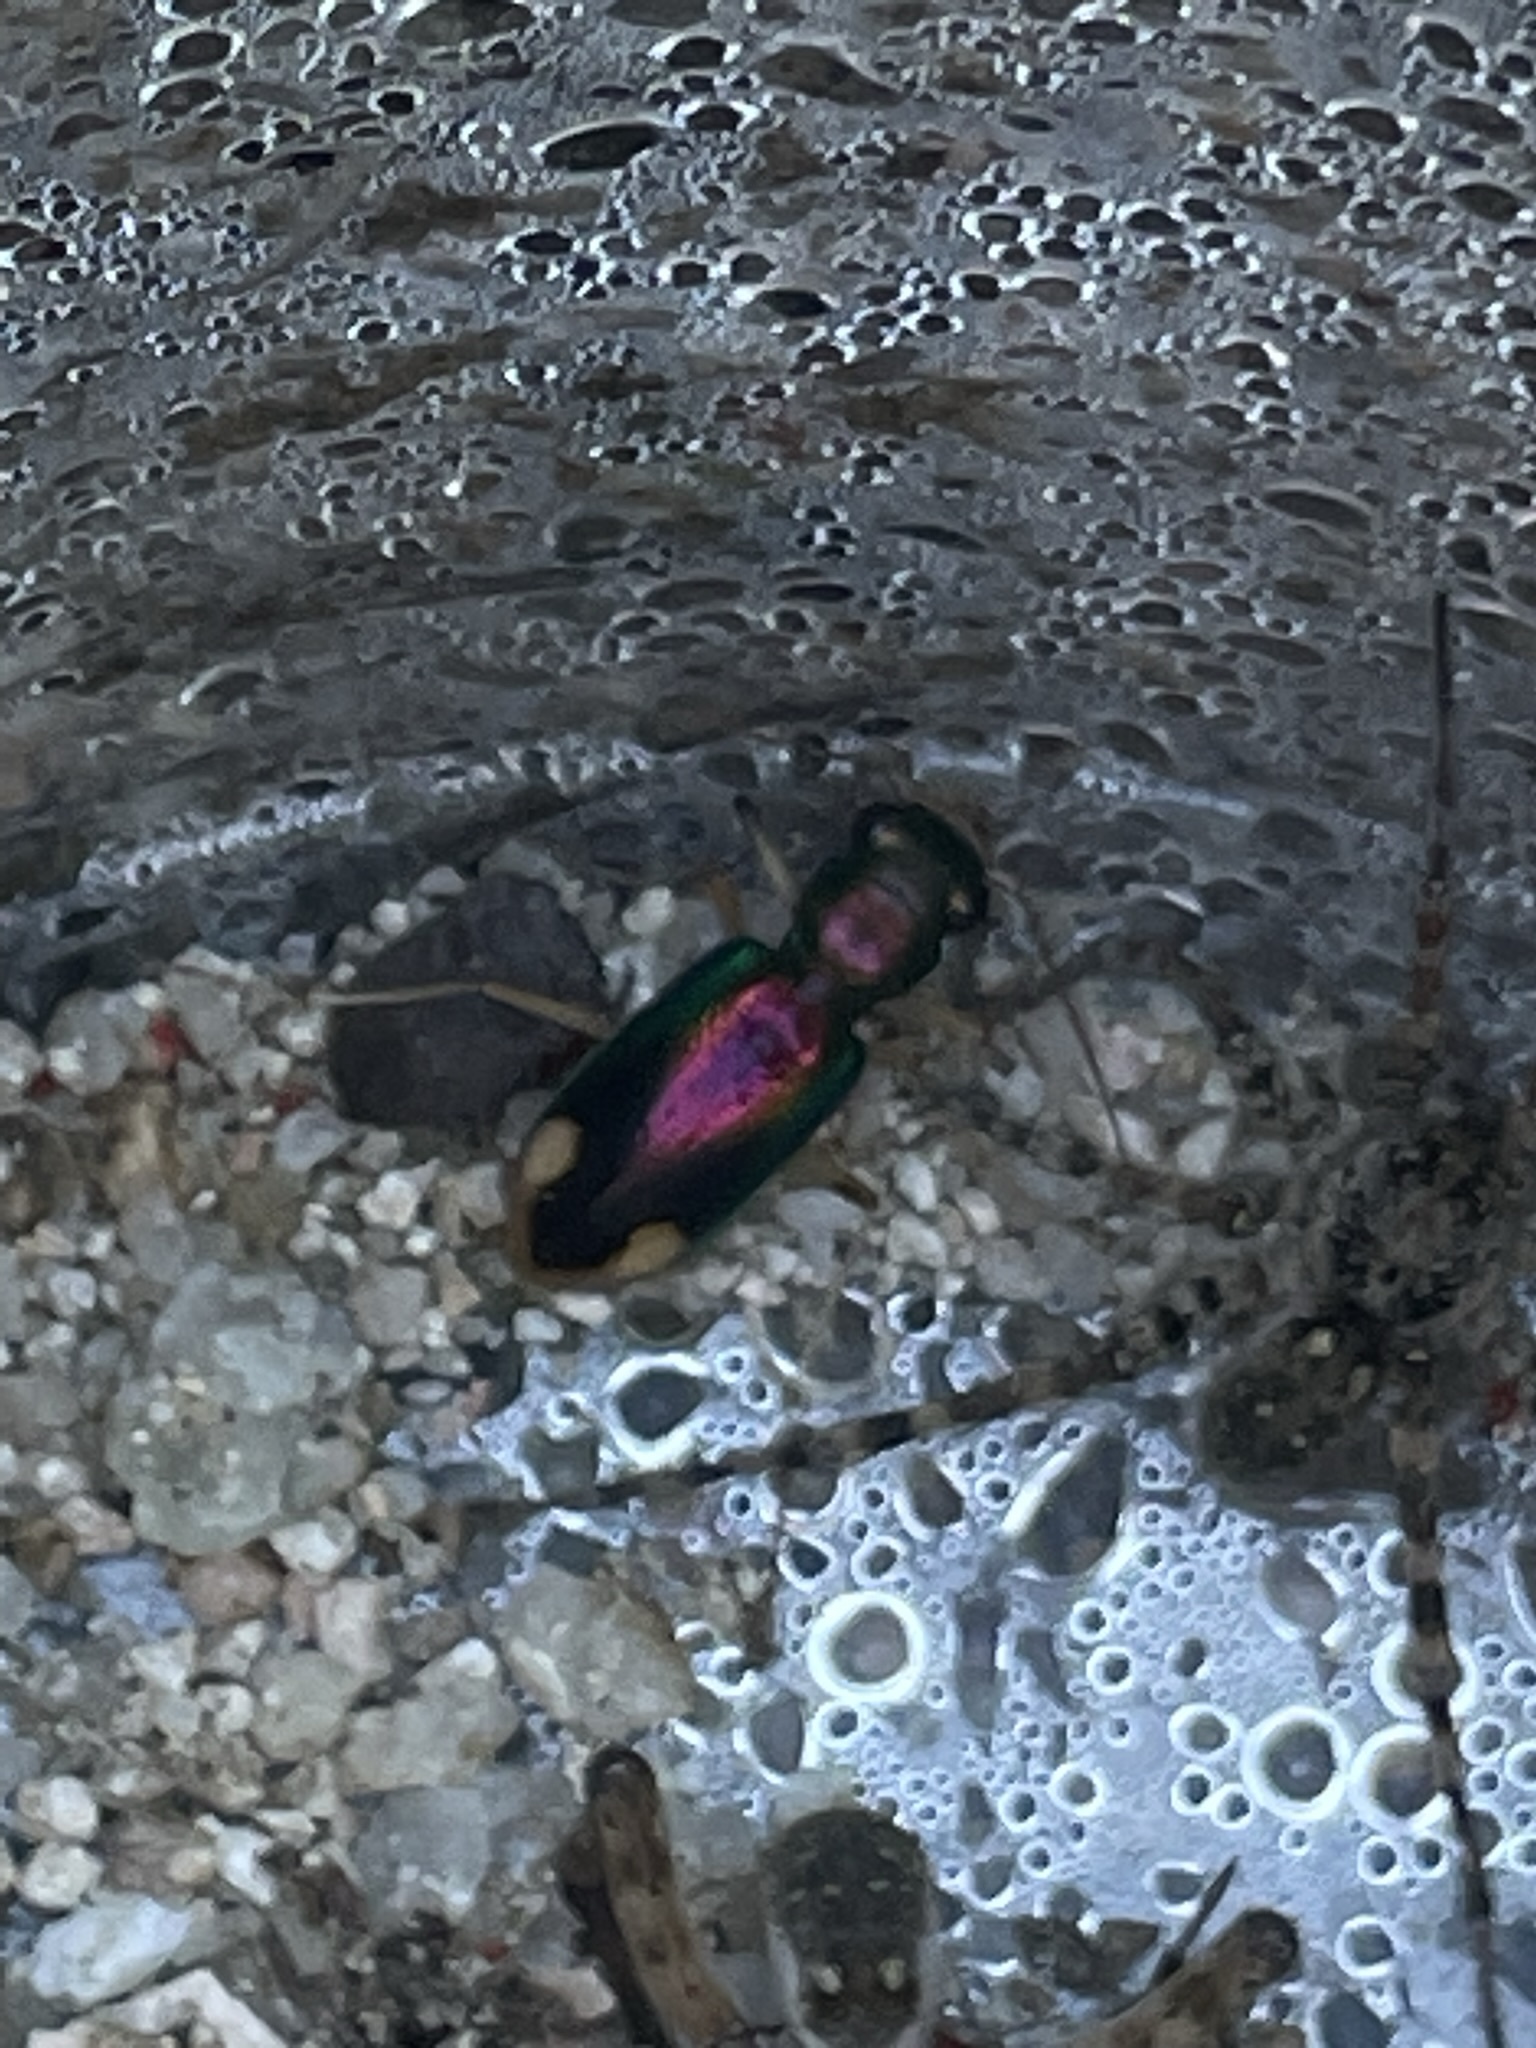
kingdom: Animalia
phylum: Arthropoda
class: Insecta
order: Coleoptera
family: Carabidae
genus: Tetracha
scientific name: Tetracha carolina
